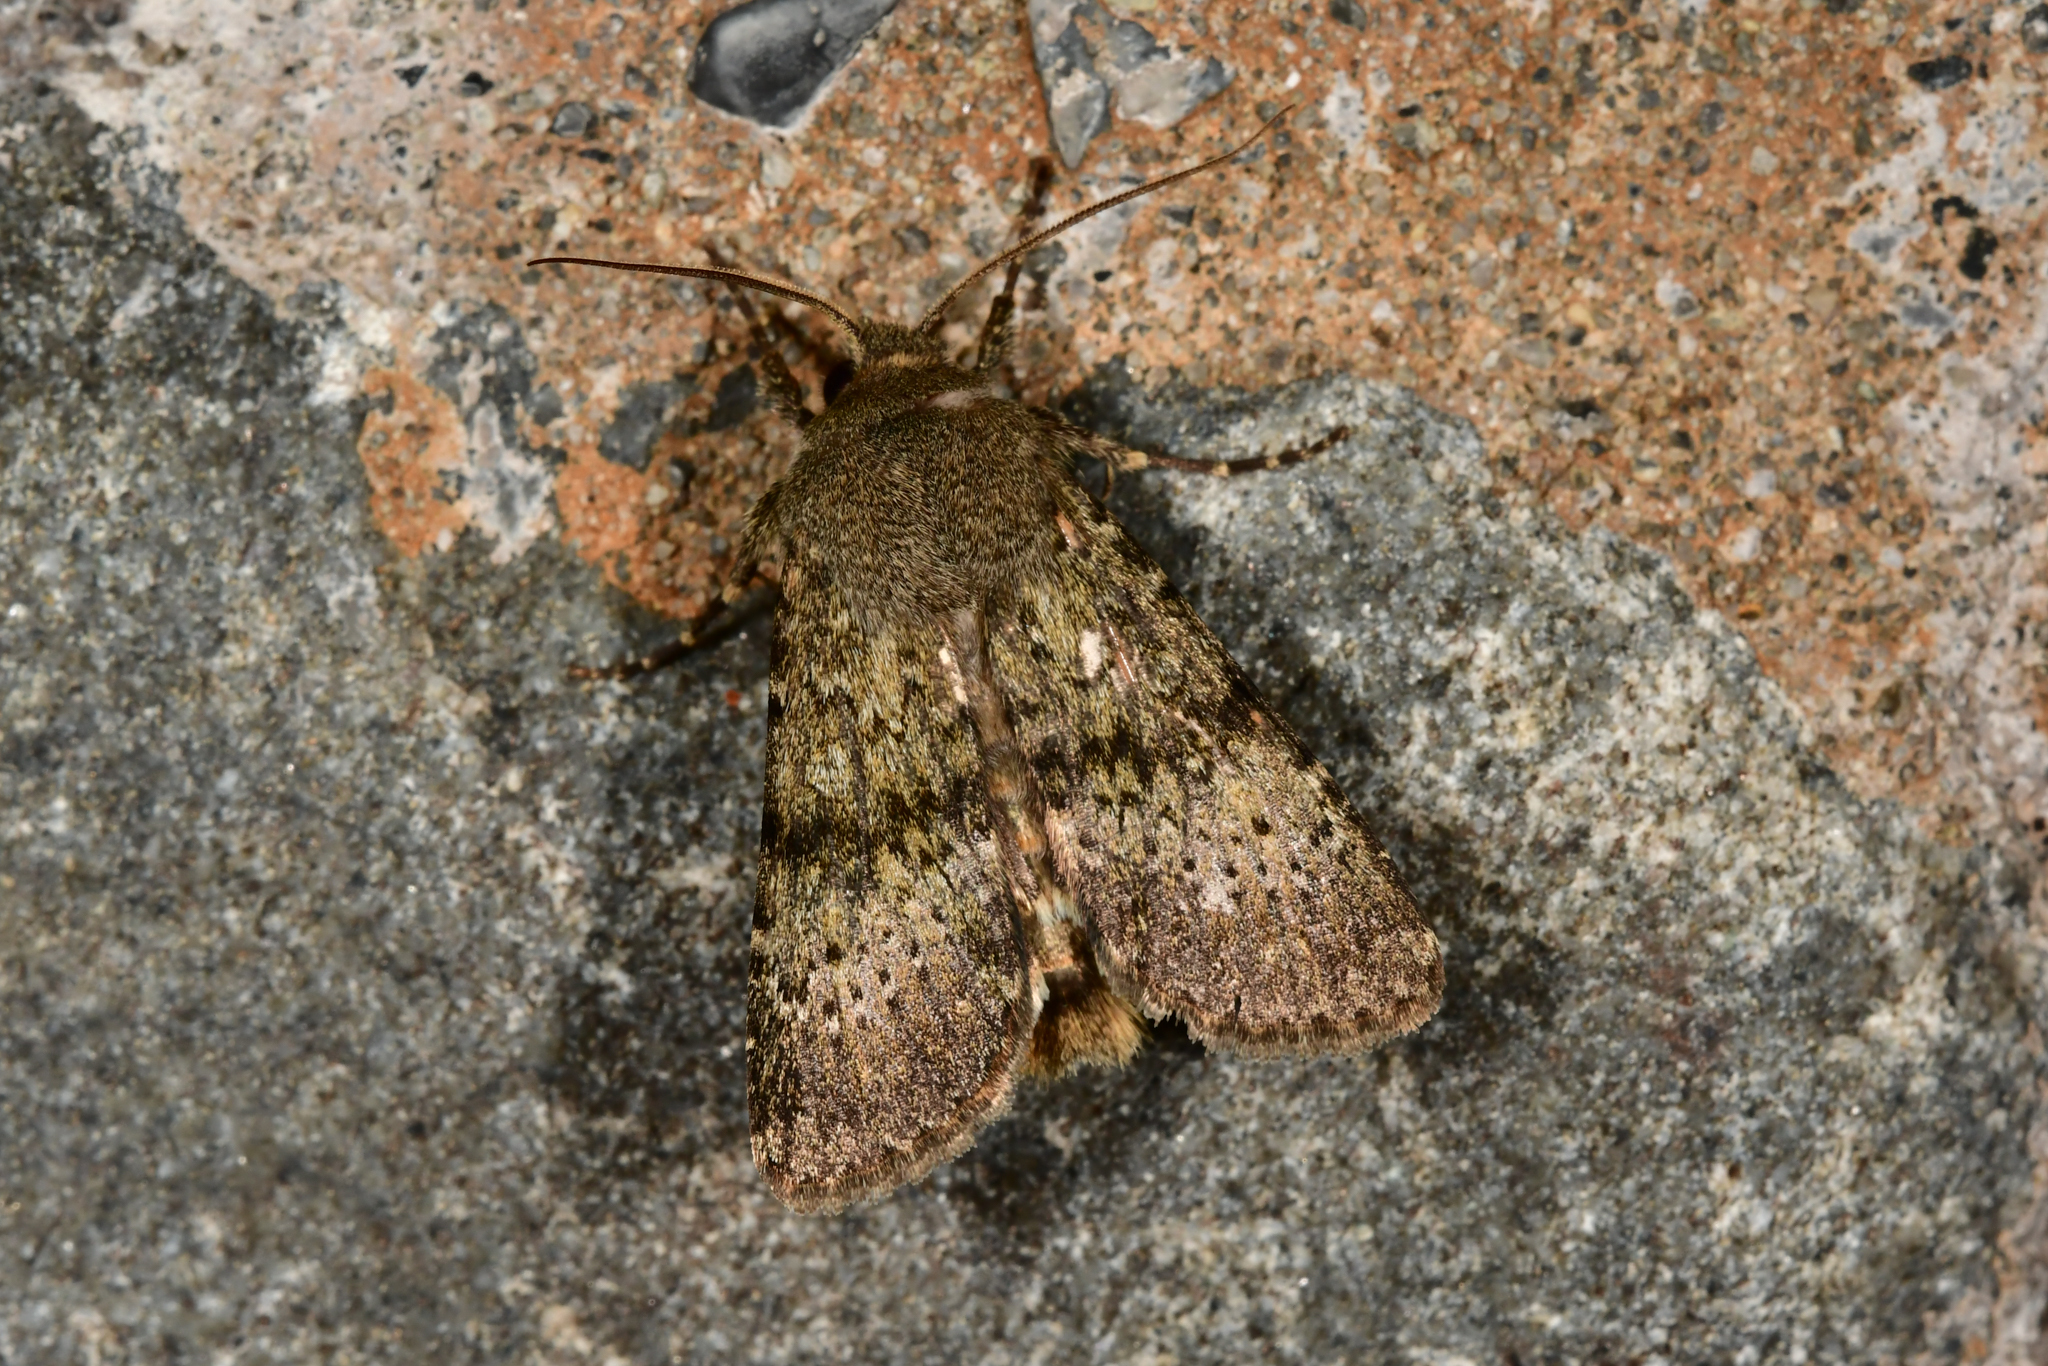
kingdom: Animalia
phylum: Arthropoda
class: Insecta
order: Lepidoptera
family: Noctuidae
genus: Ichneutica
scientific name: Ichneutica moderata
